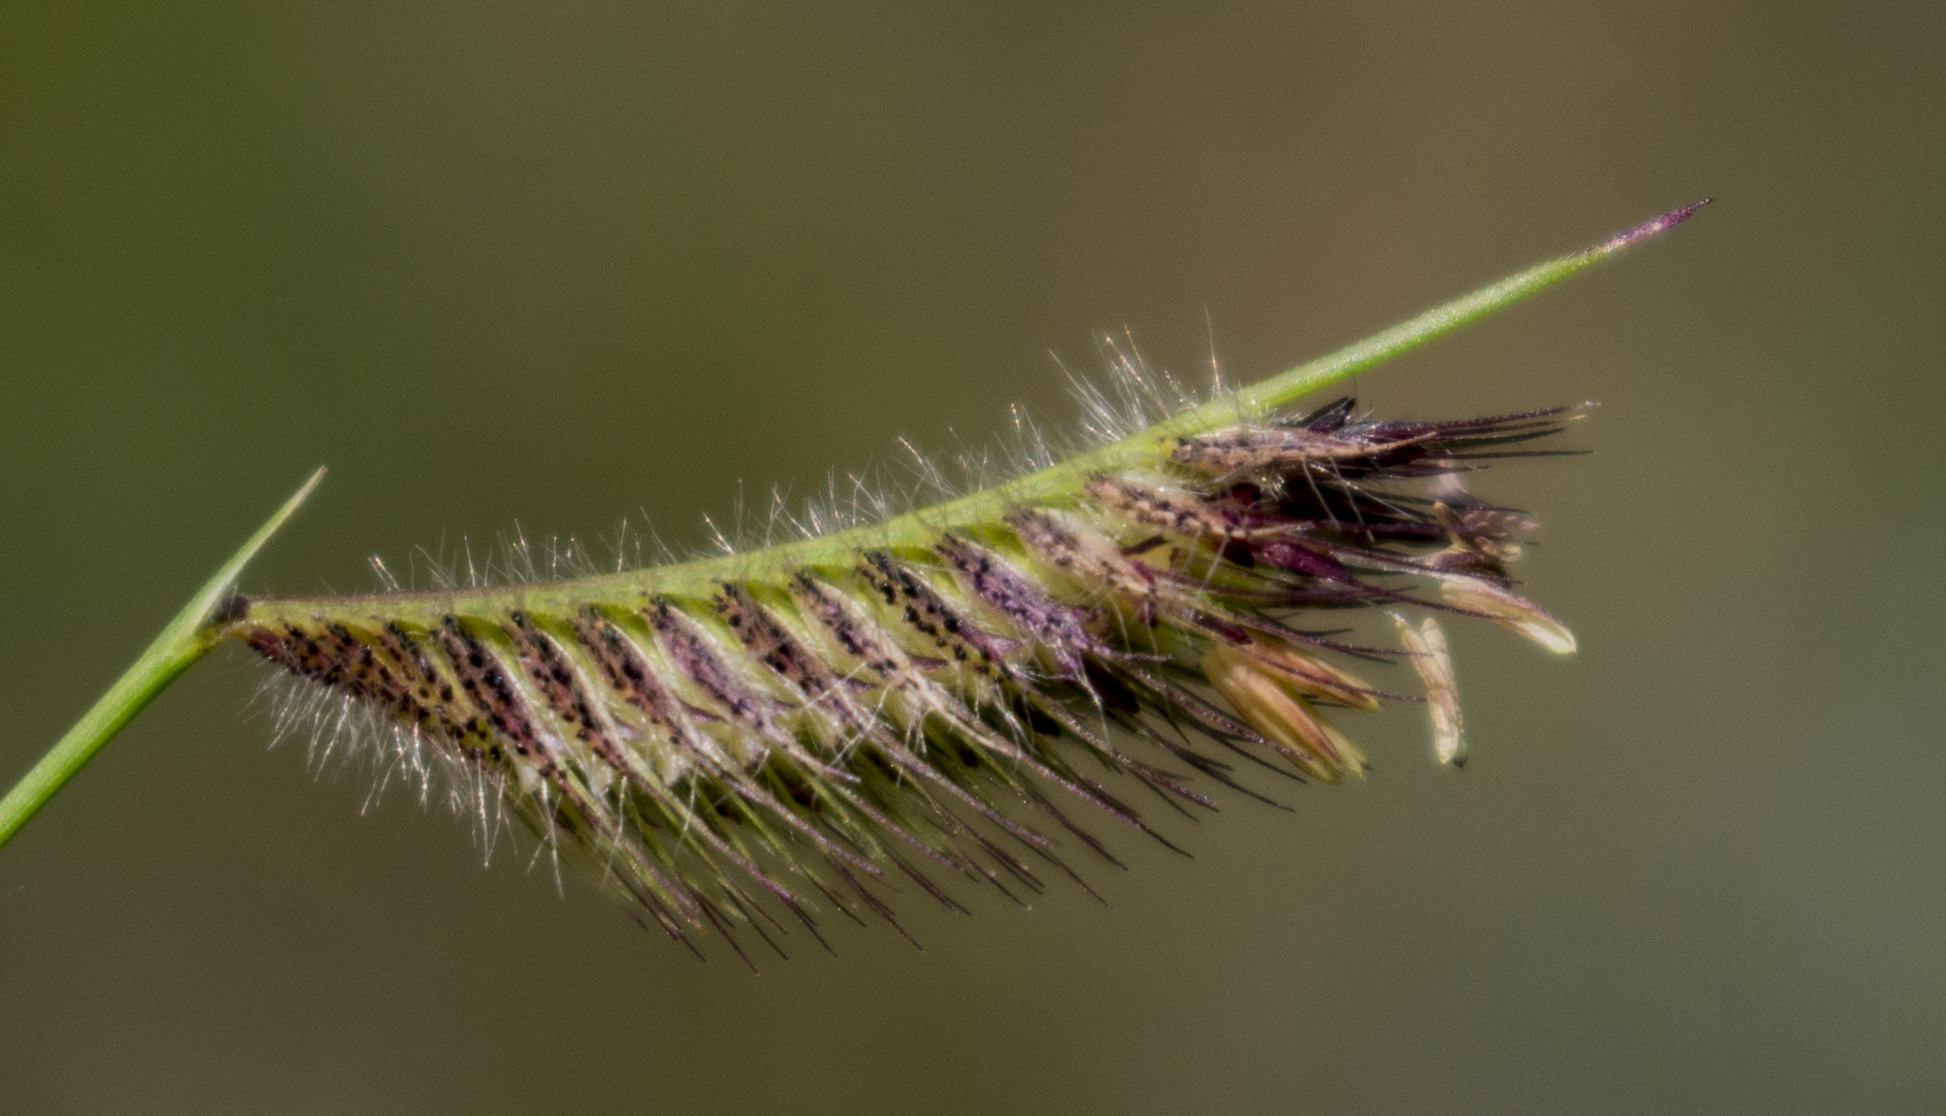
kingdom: Plantae
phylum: Tracheophyta
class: Liliopsida
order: Poales
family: Poaceae
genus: Bouteloua
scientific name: Bouteloua hirsuta
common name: Hairy grama
